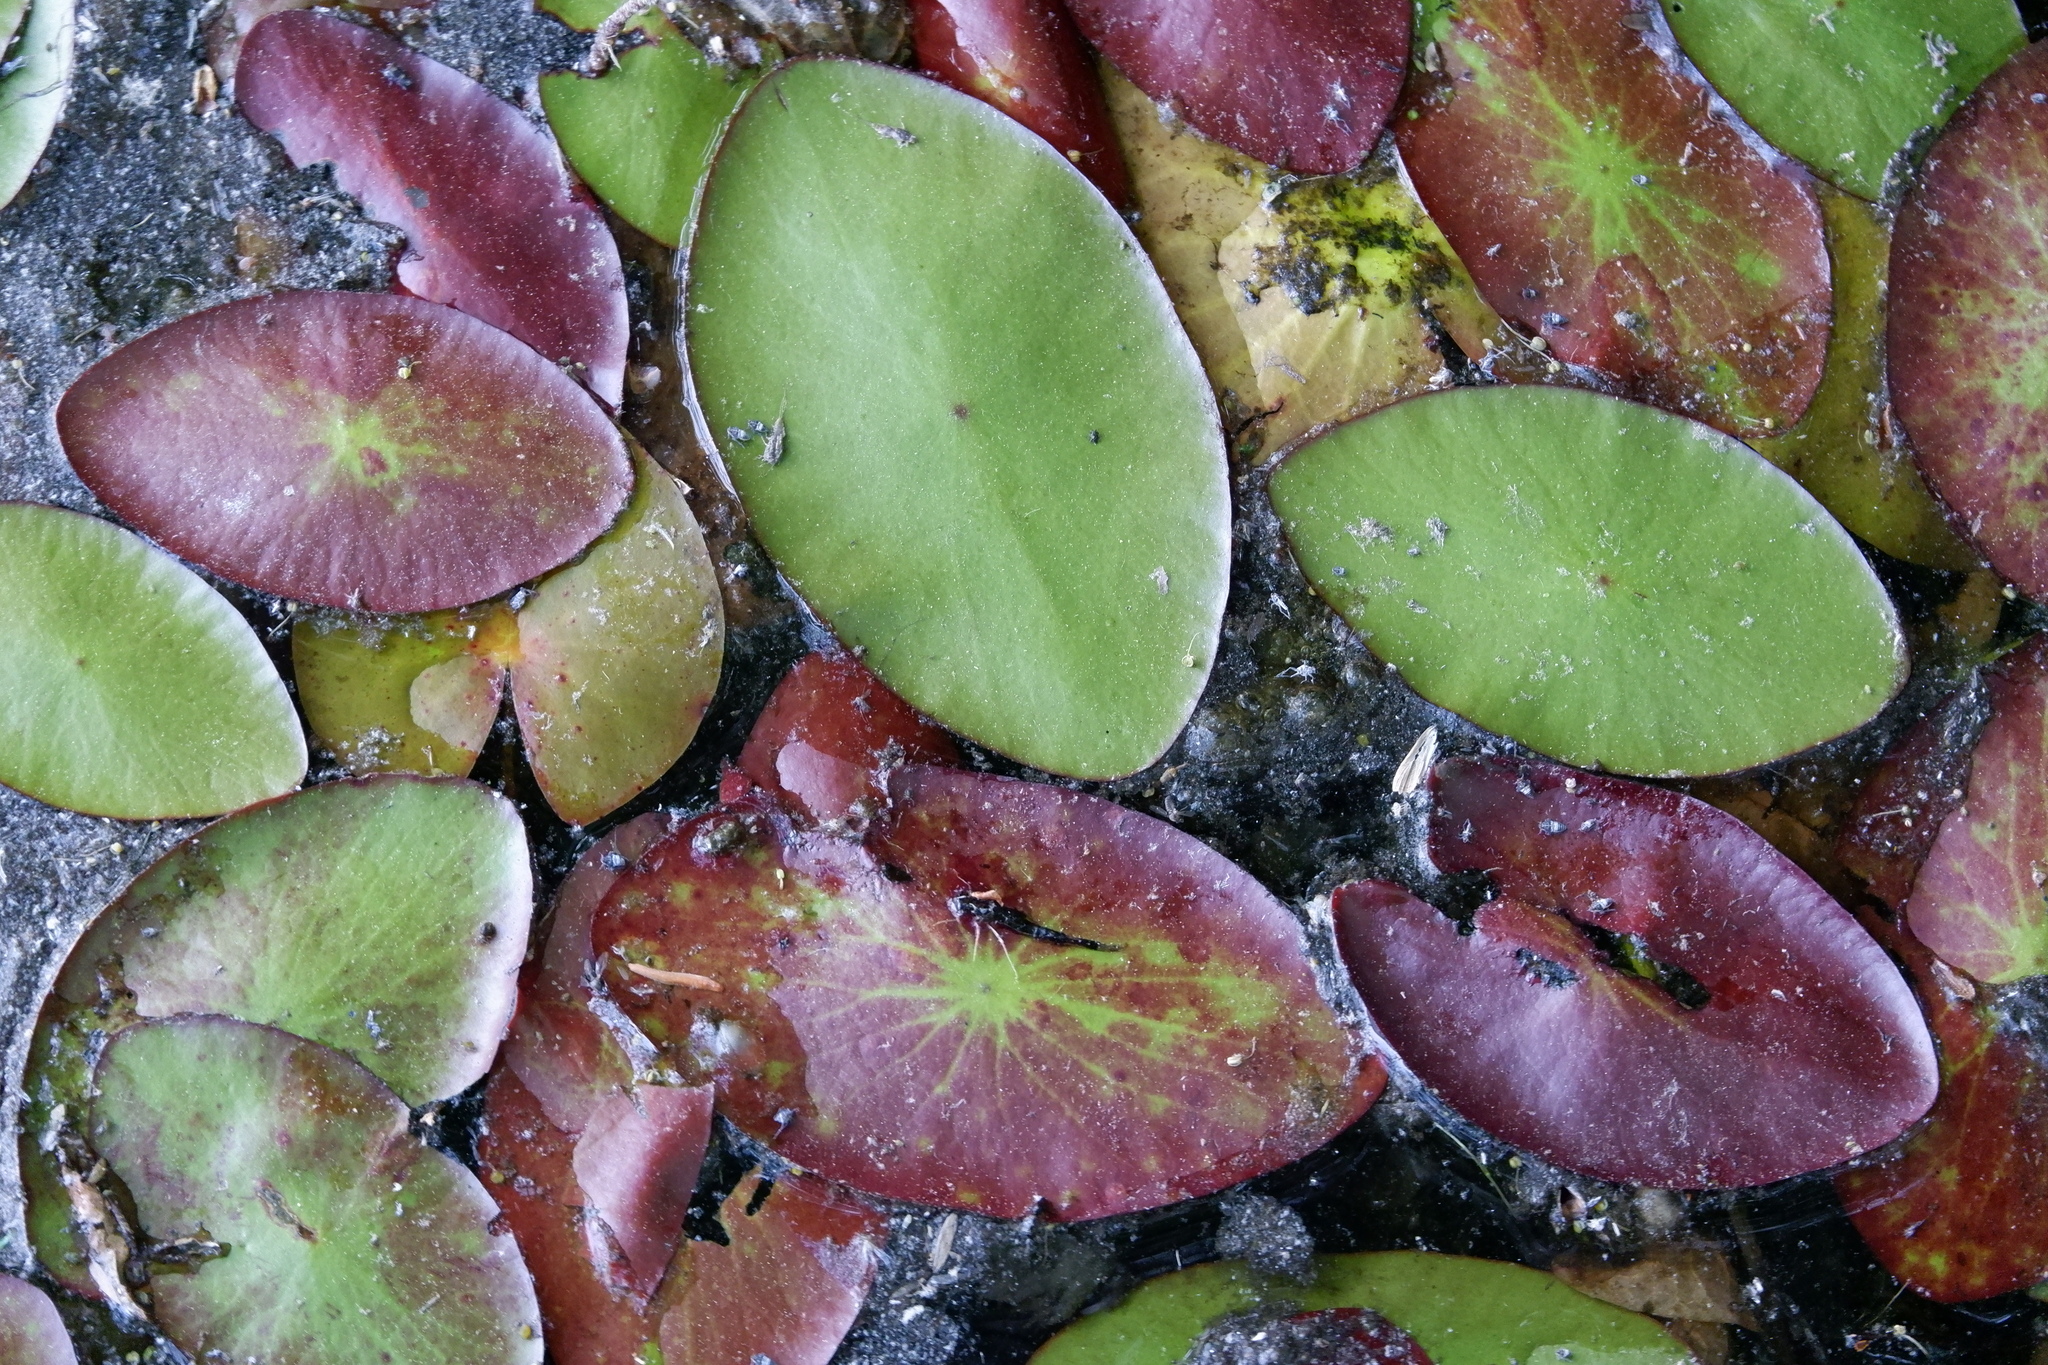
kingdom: Plantae
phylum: Tracheophyta
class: Magnoliopsida
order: Nymphaeales
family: Cabombaceae
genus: Brasenia
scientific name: Brasenia schreberi
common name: Water-shield
